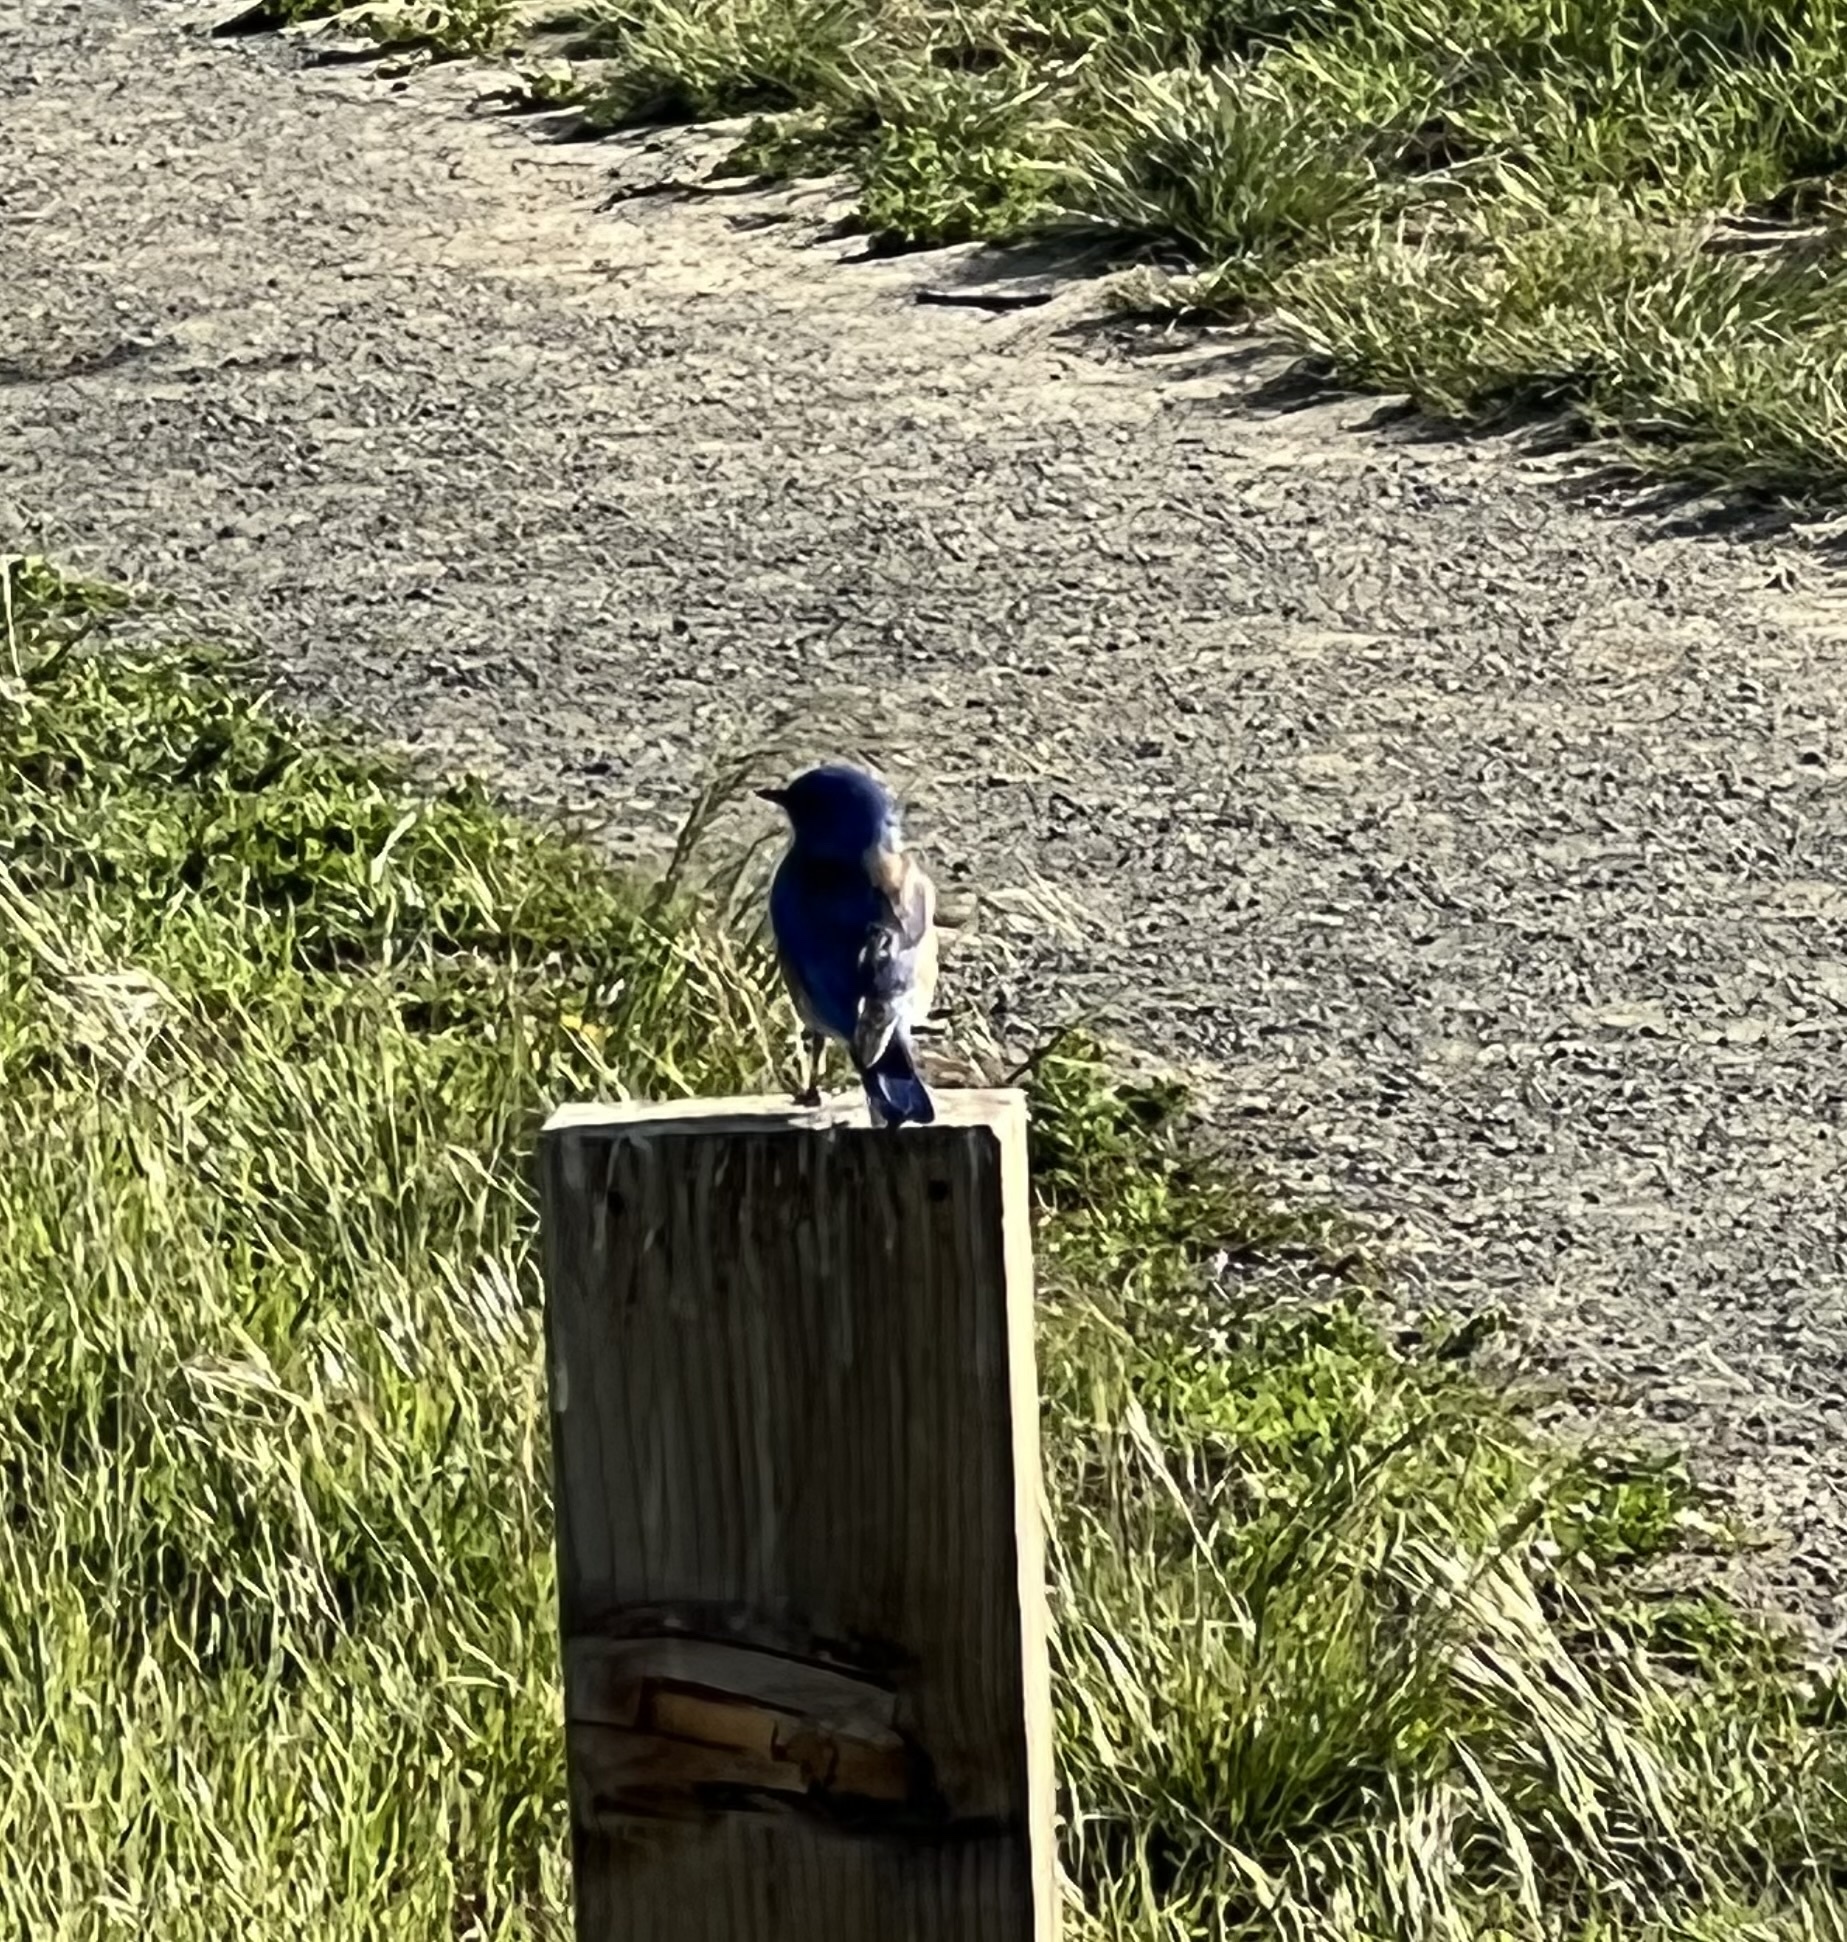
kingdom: Animalia
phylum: Chordata
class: Aves
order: Passeriformes
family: Turdidae
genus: Sialia
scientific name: Sialia mexicana
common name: Western bluebird
